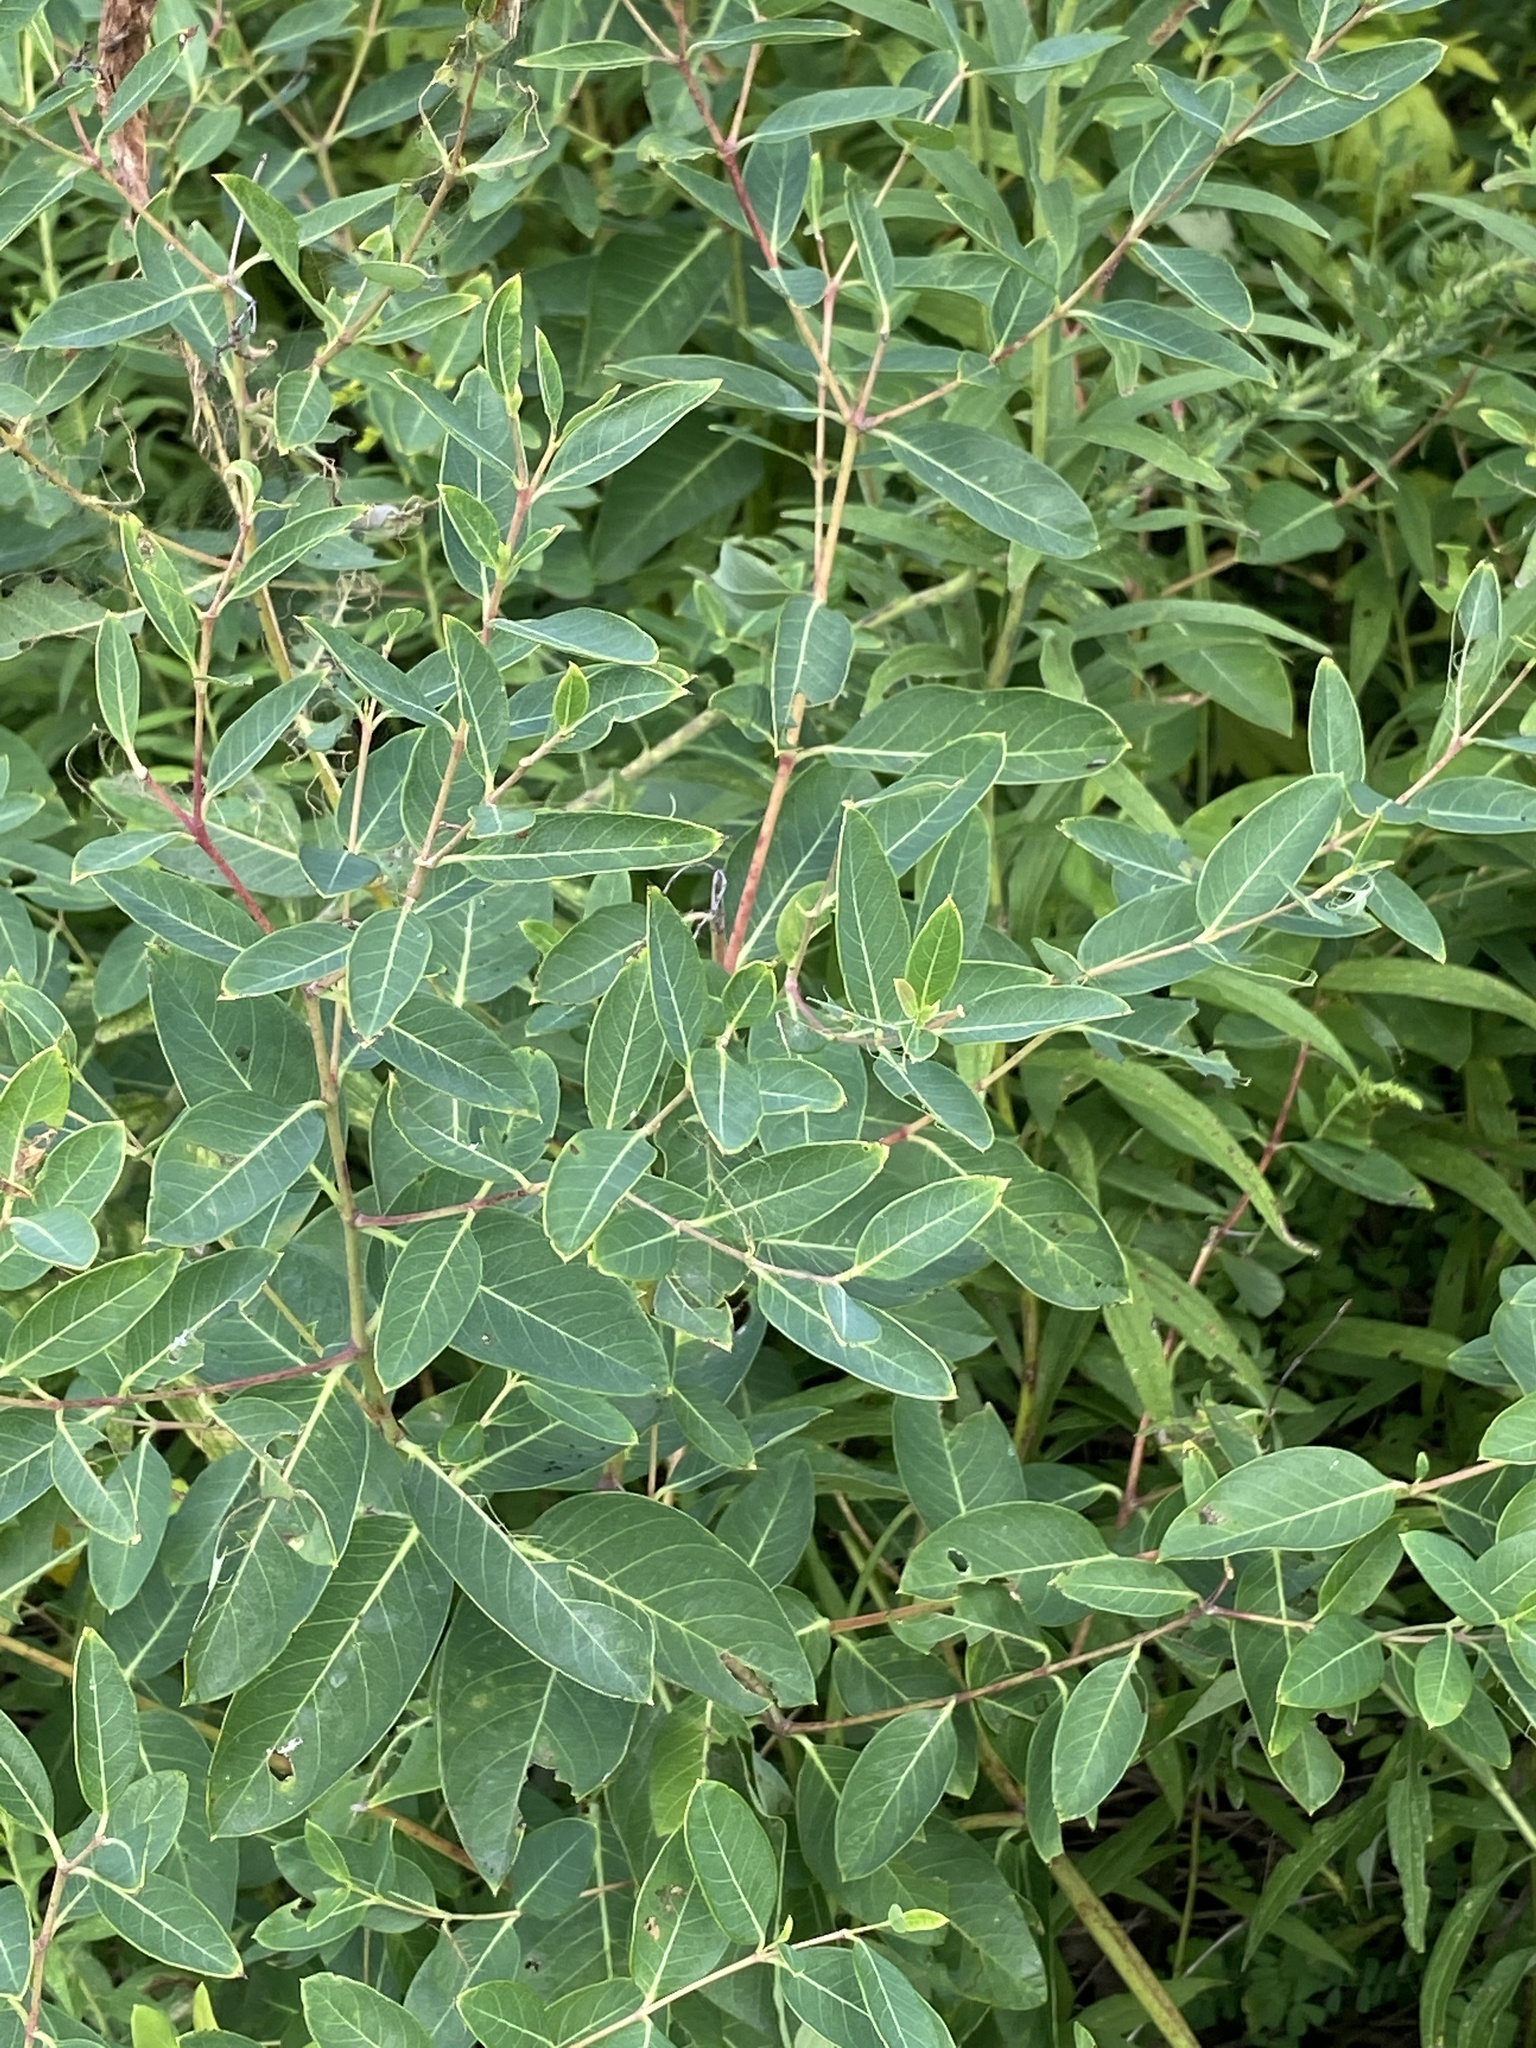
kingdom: Plantae
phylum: Tracheophyta
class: Magnoliopsida
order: Gentianales
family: Apocynaceae
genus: Apocynum
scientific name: Apocynum cannabinum
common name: Hemp dogbane
